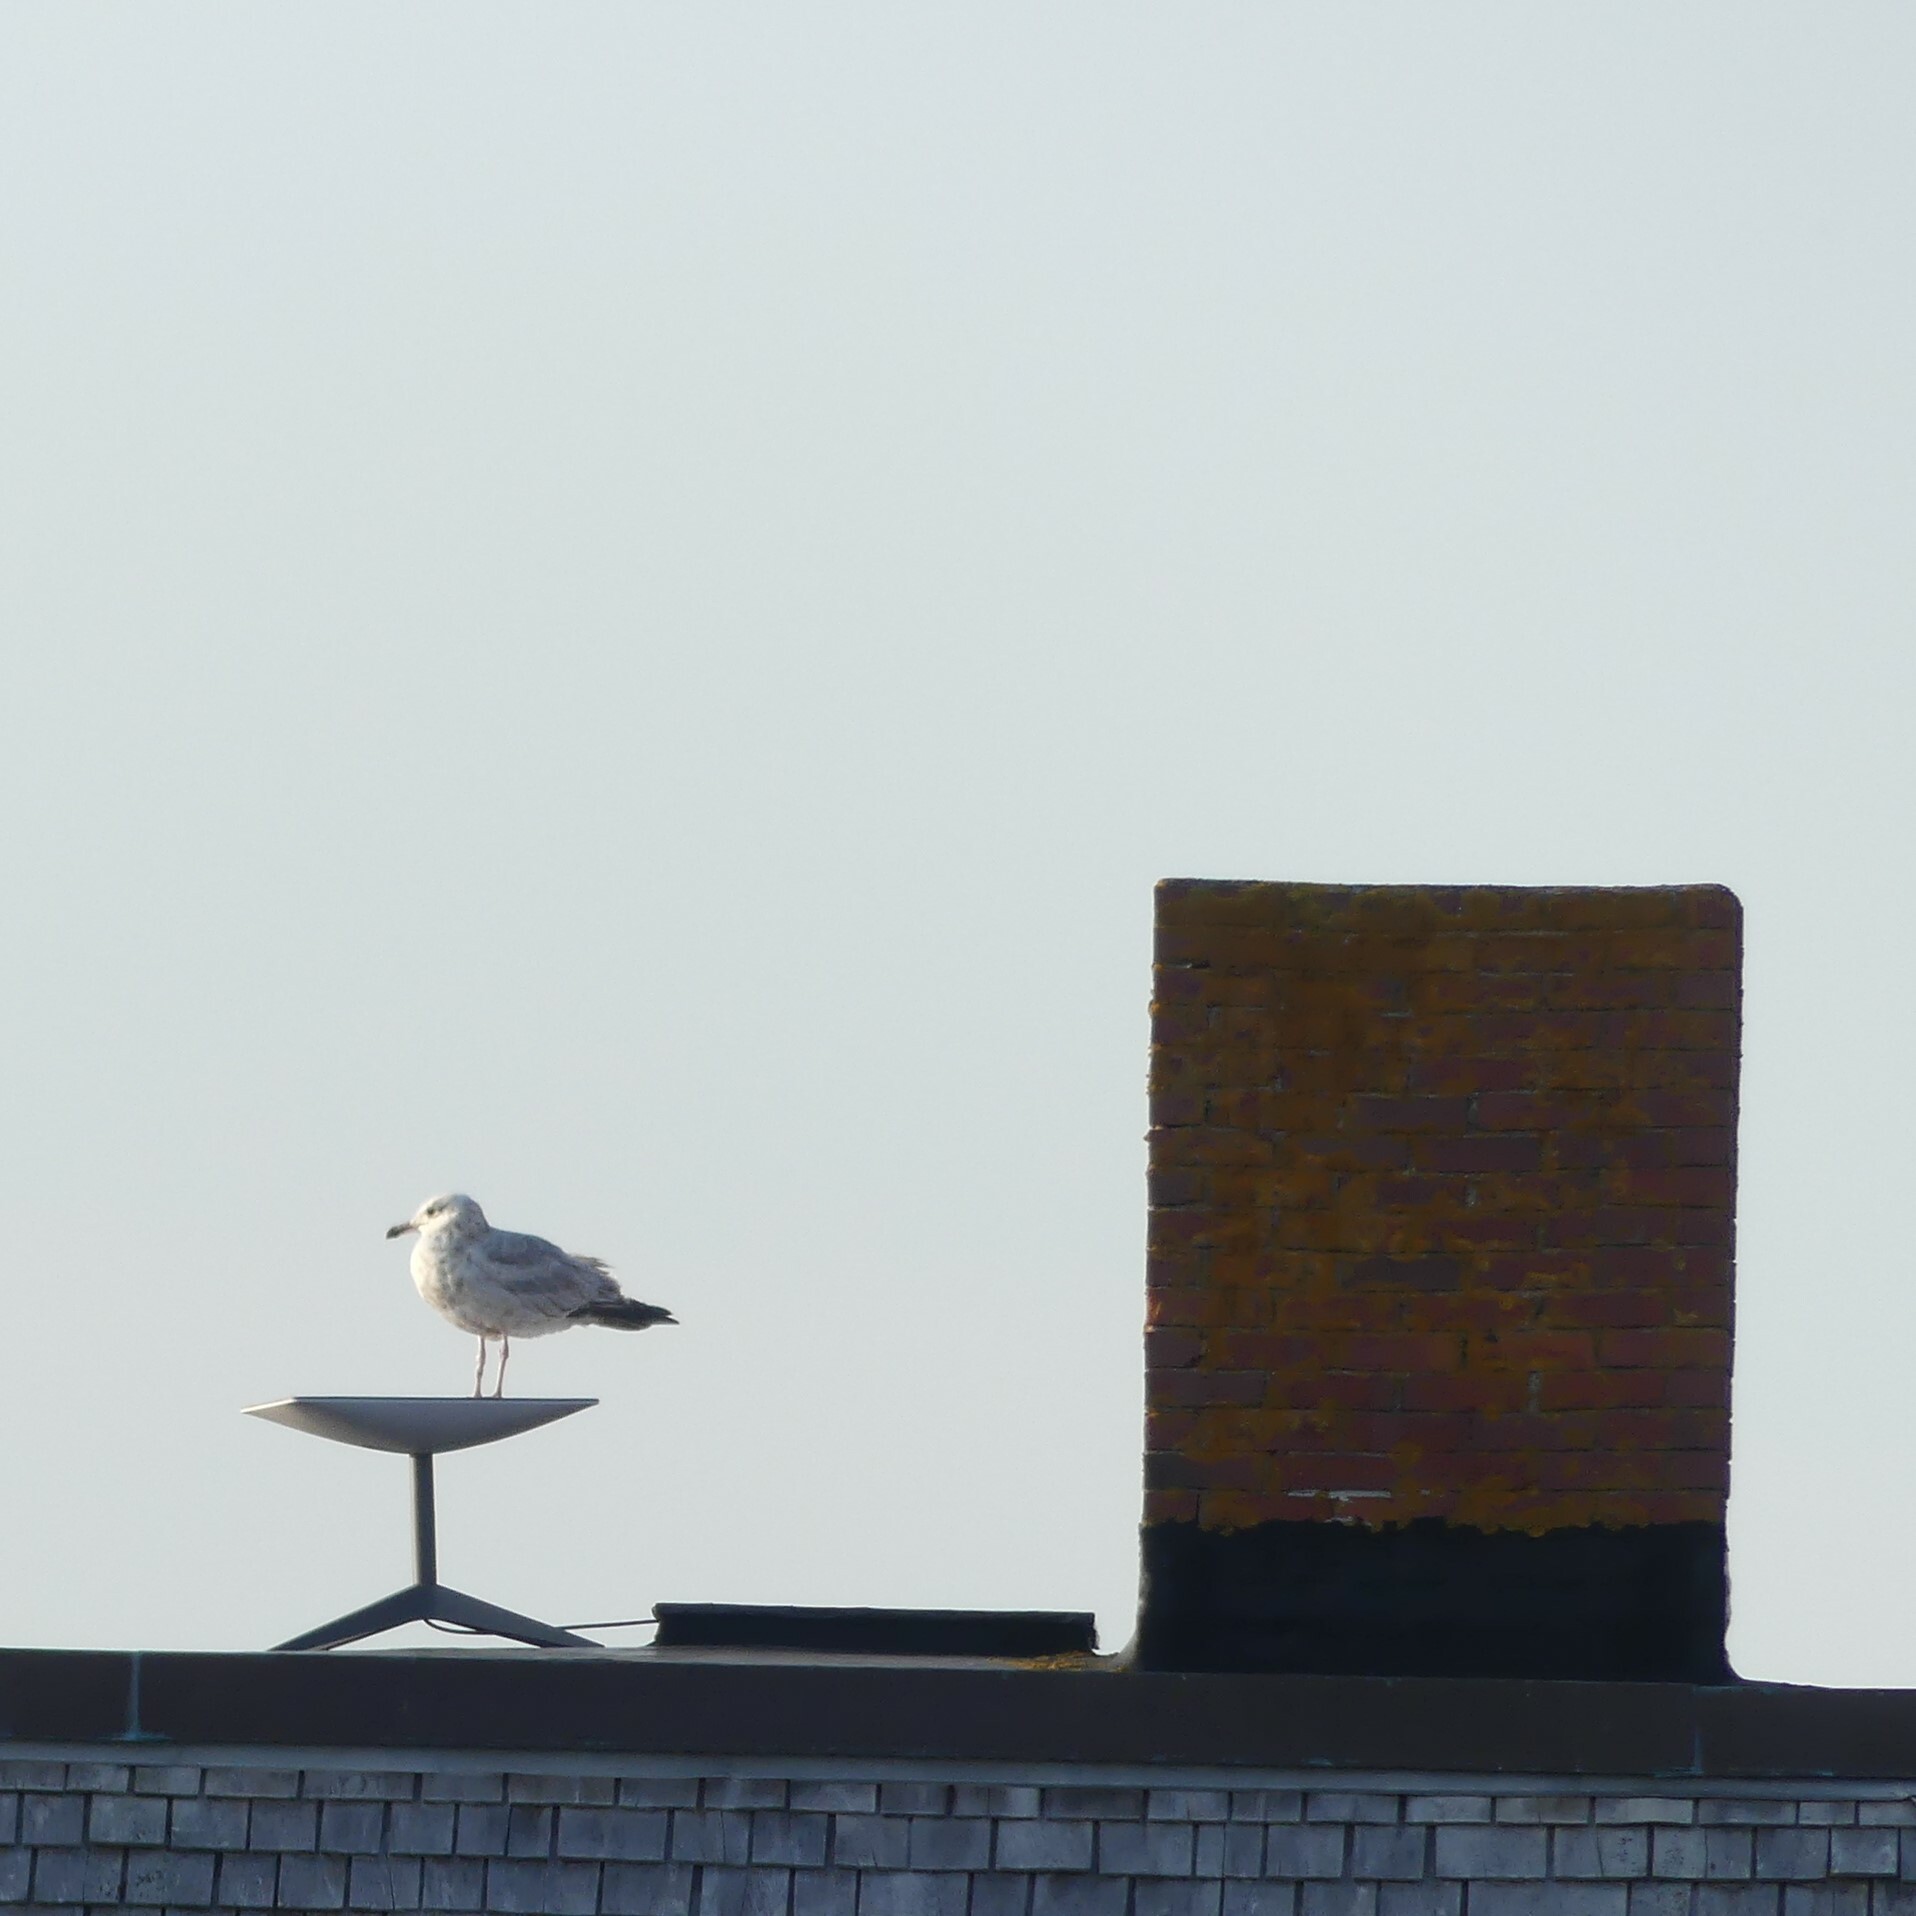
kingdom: Animalia
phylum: Chordata
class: Aves
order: Charadriiformes
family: Laridae
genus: Larus
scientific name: Larus argentatus
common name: Herring gull
